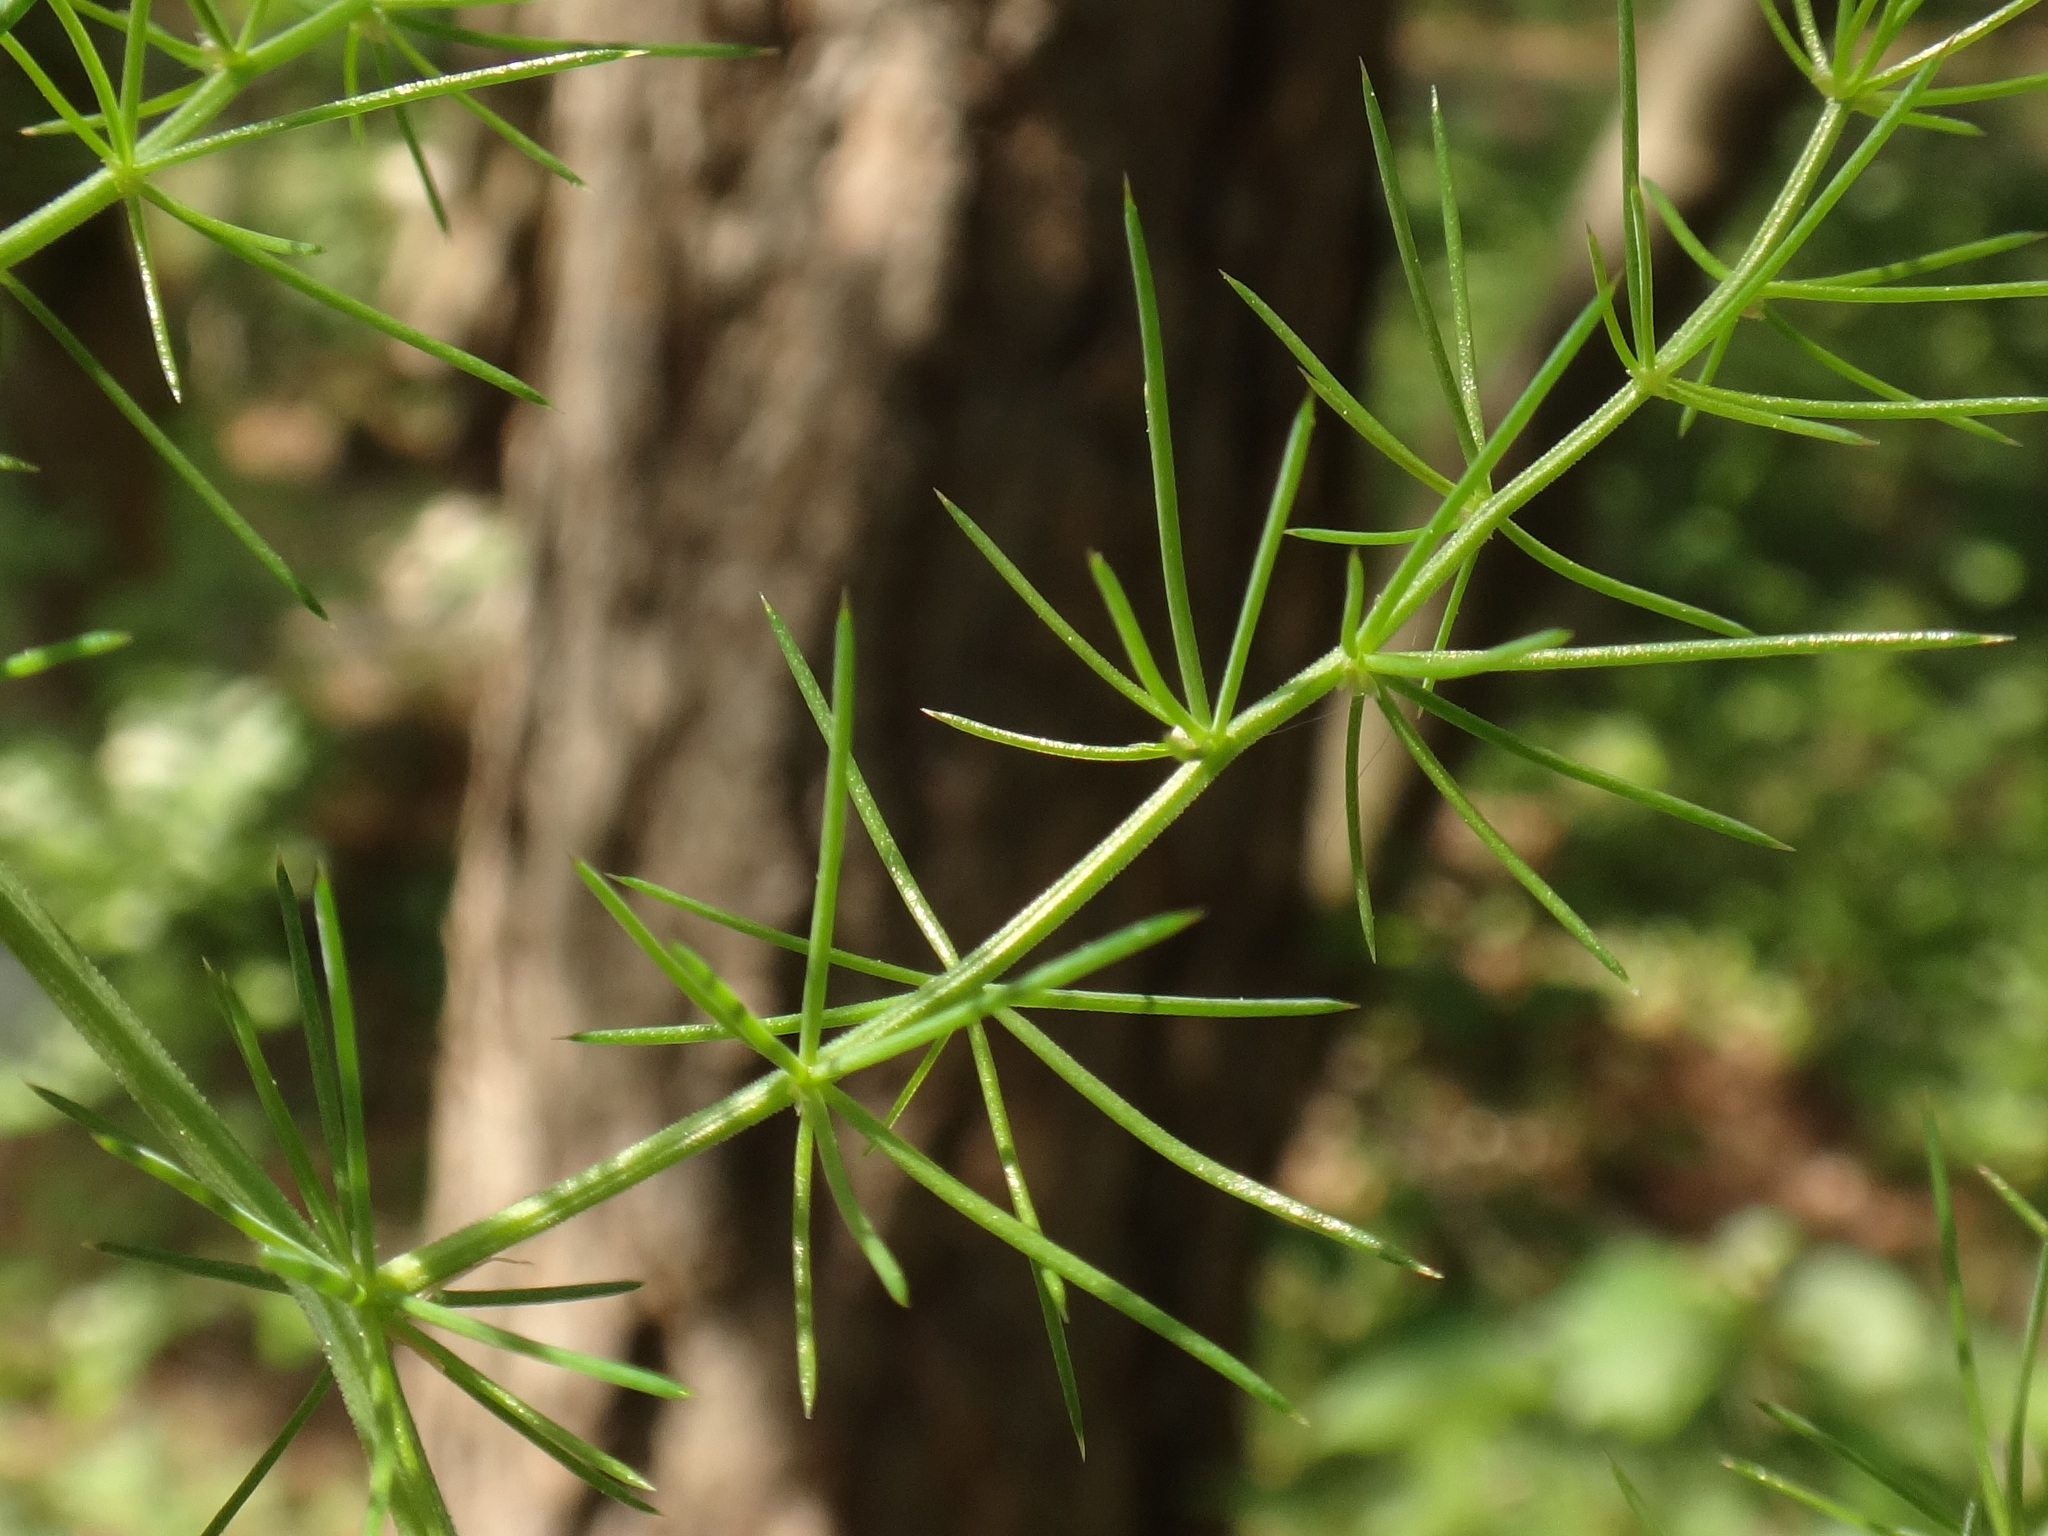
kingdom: Plantae
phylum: Tracheophyta
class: Liliopsida
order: Asparagales
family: Asparagaceae
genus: Asparagus
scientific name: Asparagus acutifolius
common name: Wild asparagus
